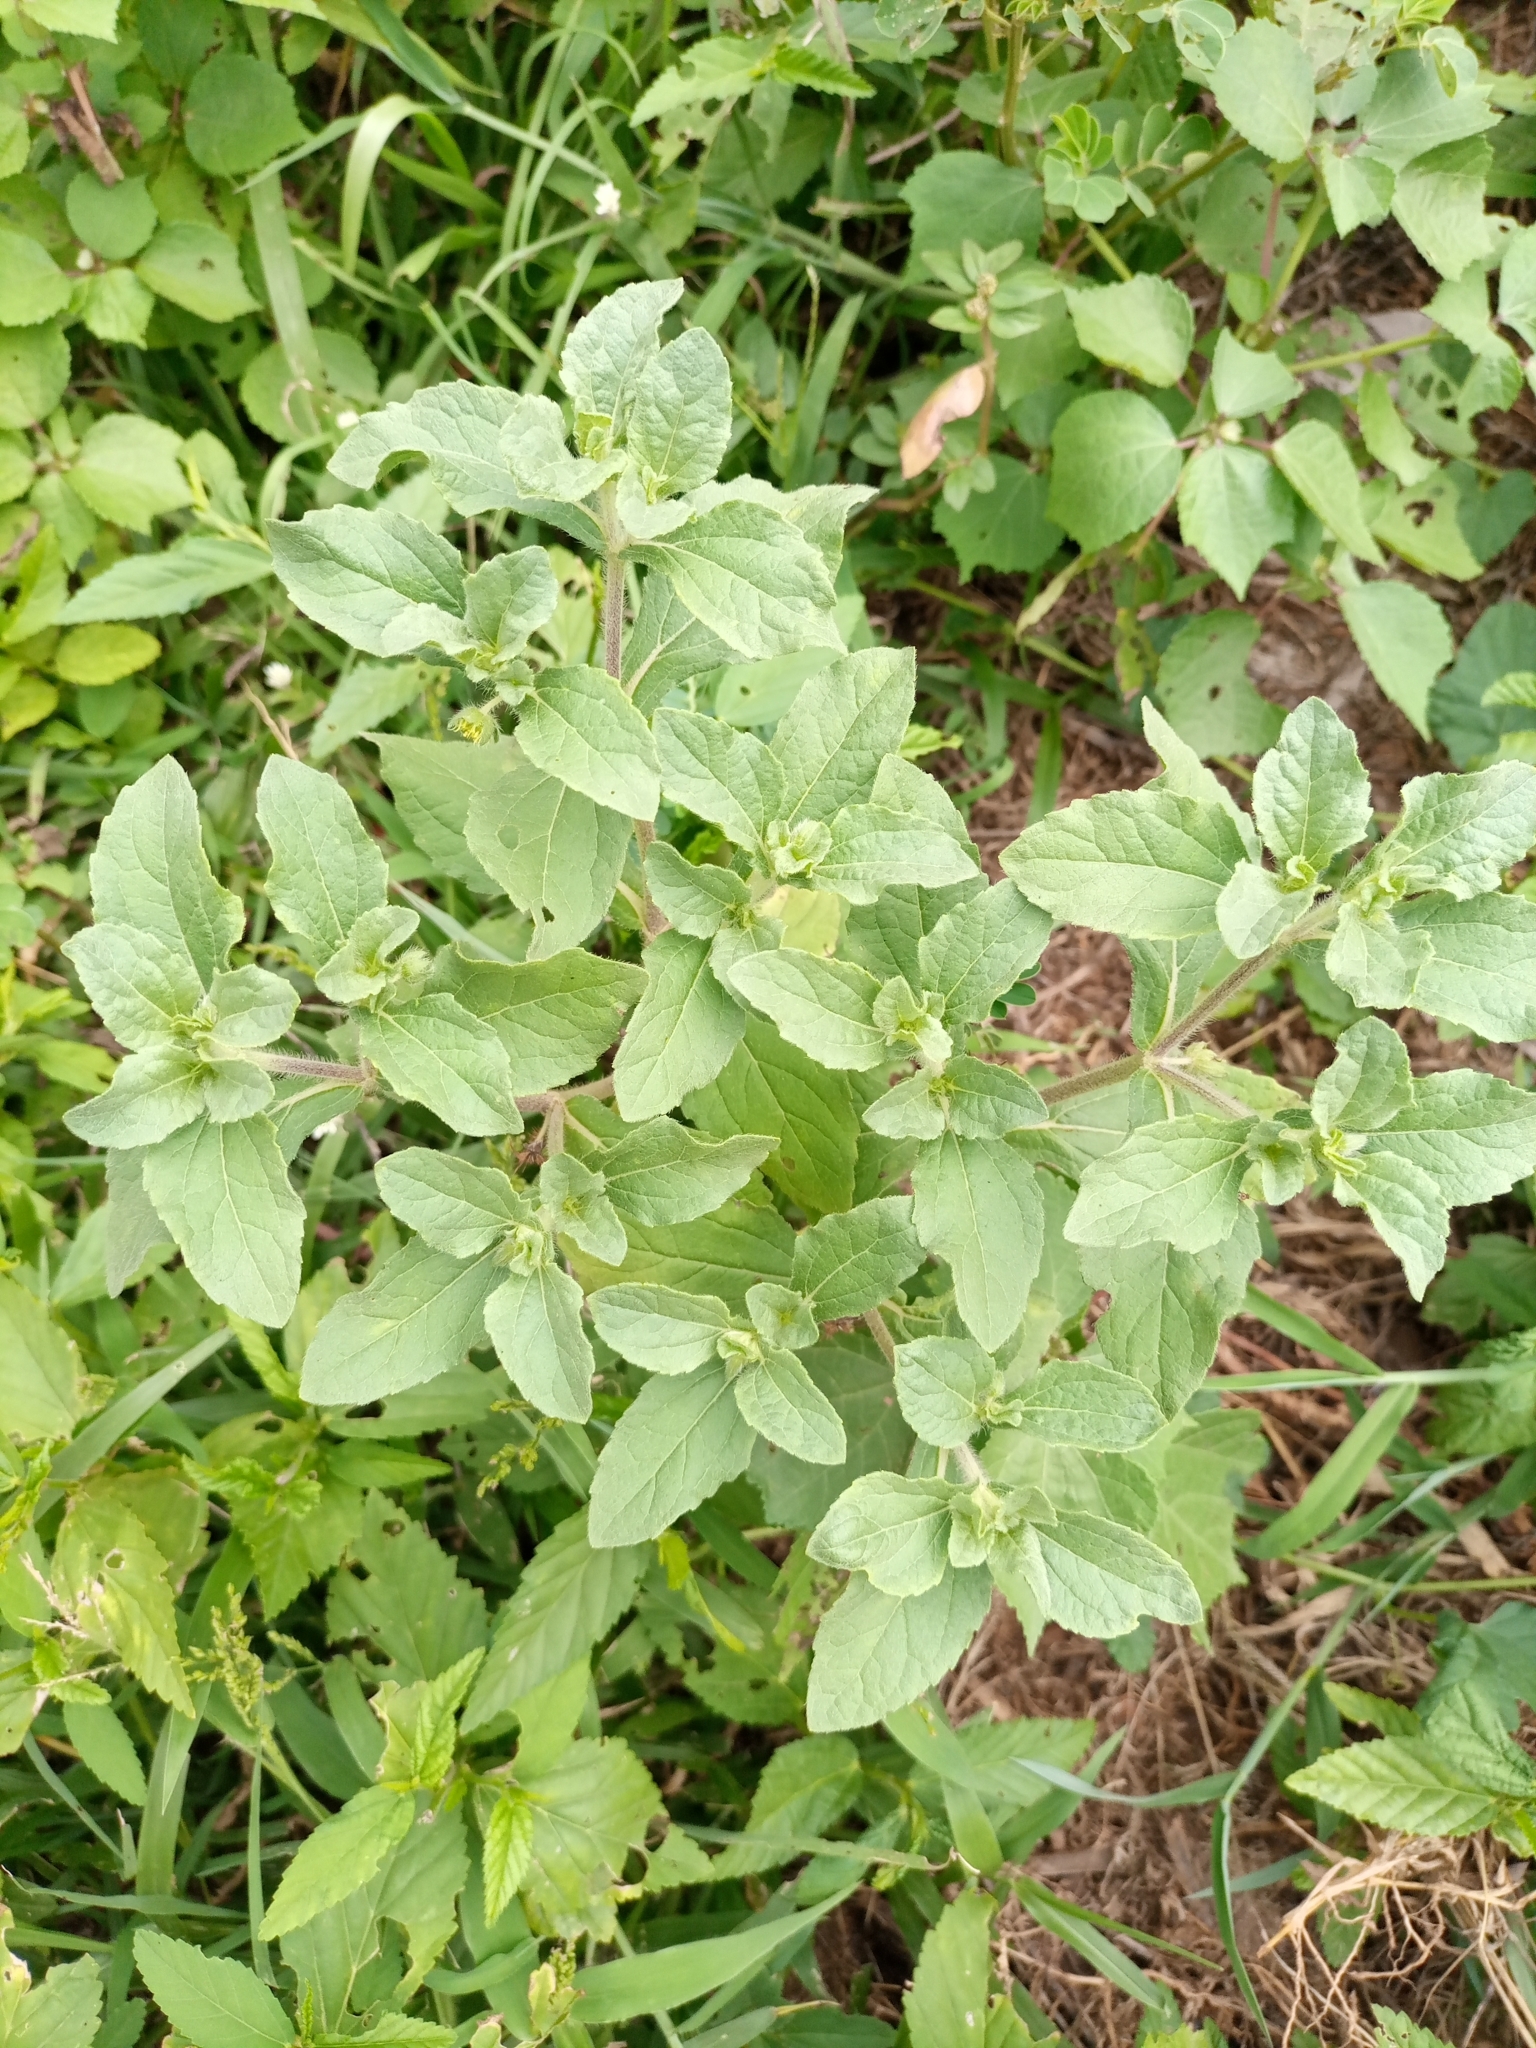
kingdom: Plantae
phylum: Tracheophyta
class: Magnoliopsida
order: Asterales
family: Asteraceae
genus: Acanthospermum
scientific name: Acanthospermum
